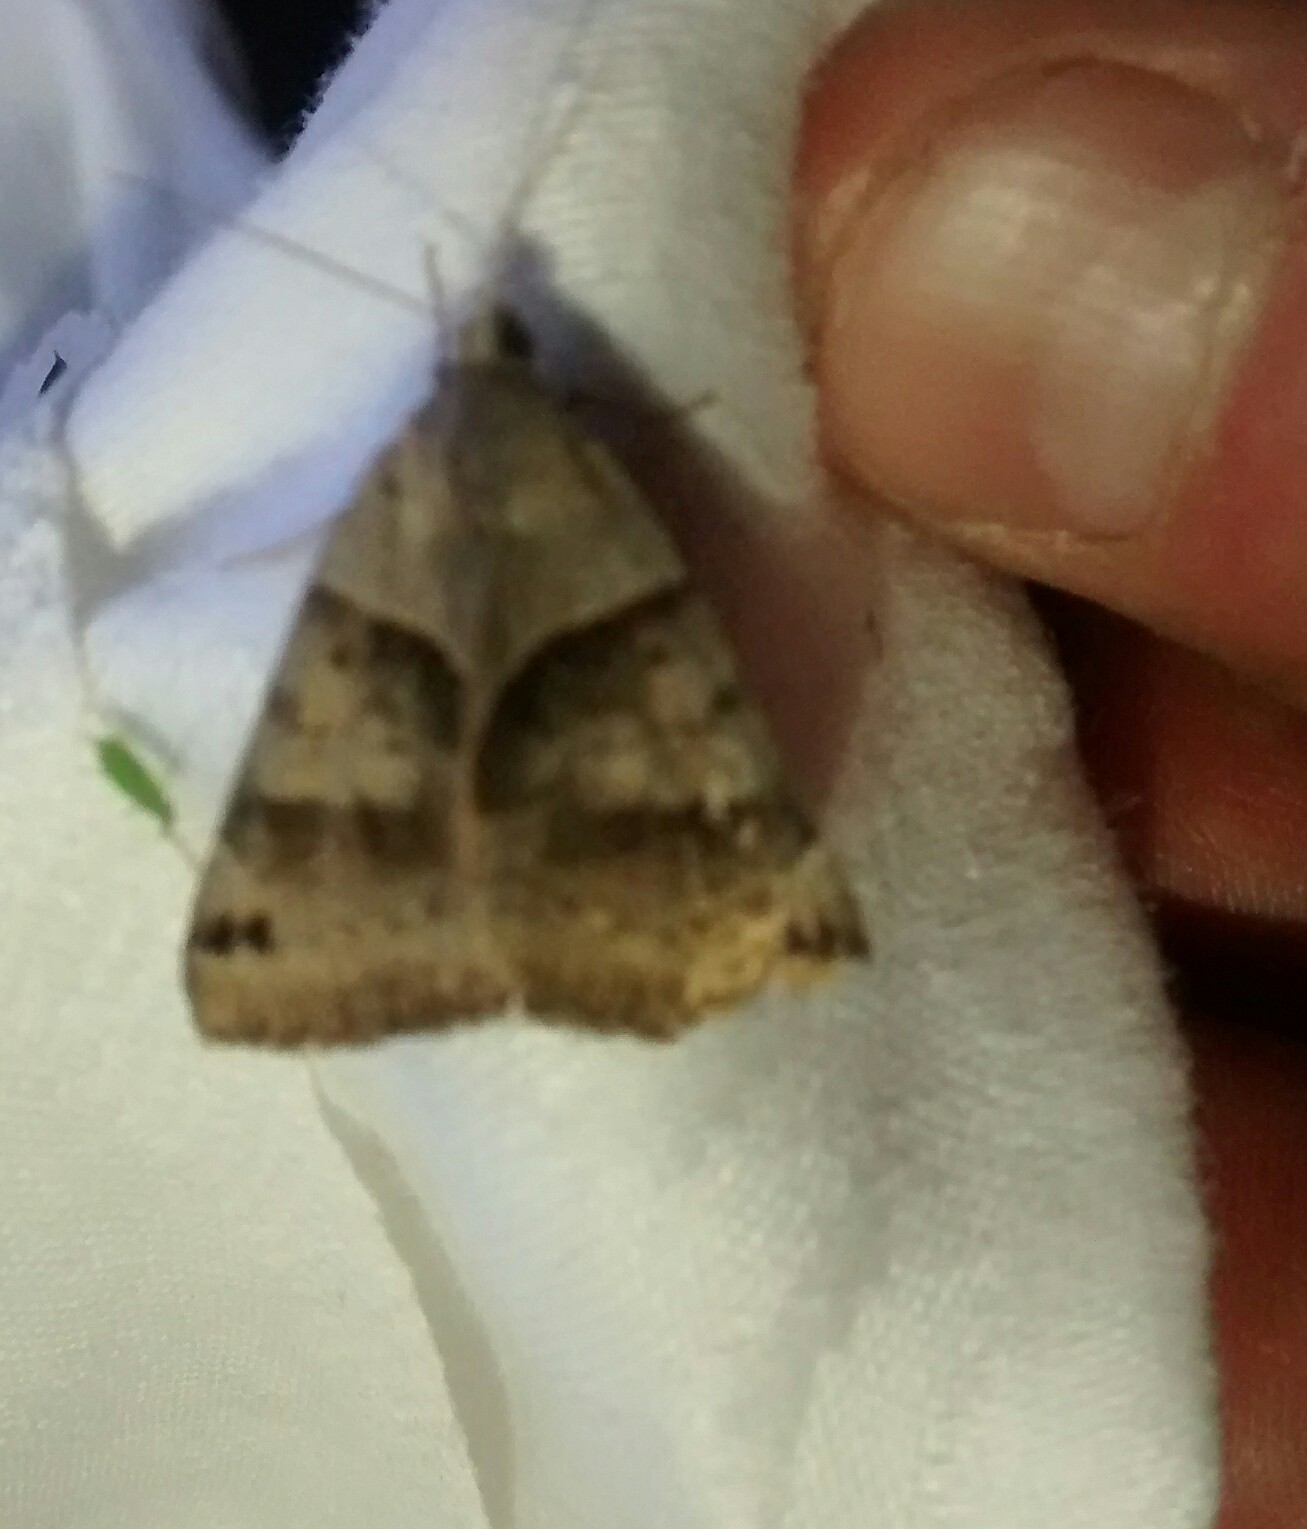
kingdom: Animalia
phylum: Arthropoda
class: Insecta
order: Lepidoptera
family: Erebidae
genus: Caenurgina
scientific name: Caenurgina crassiuscula
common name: Double-barred
